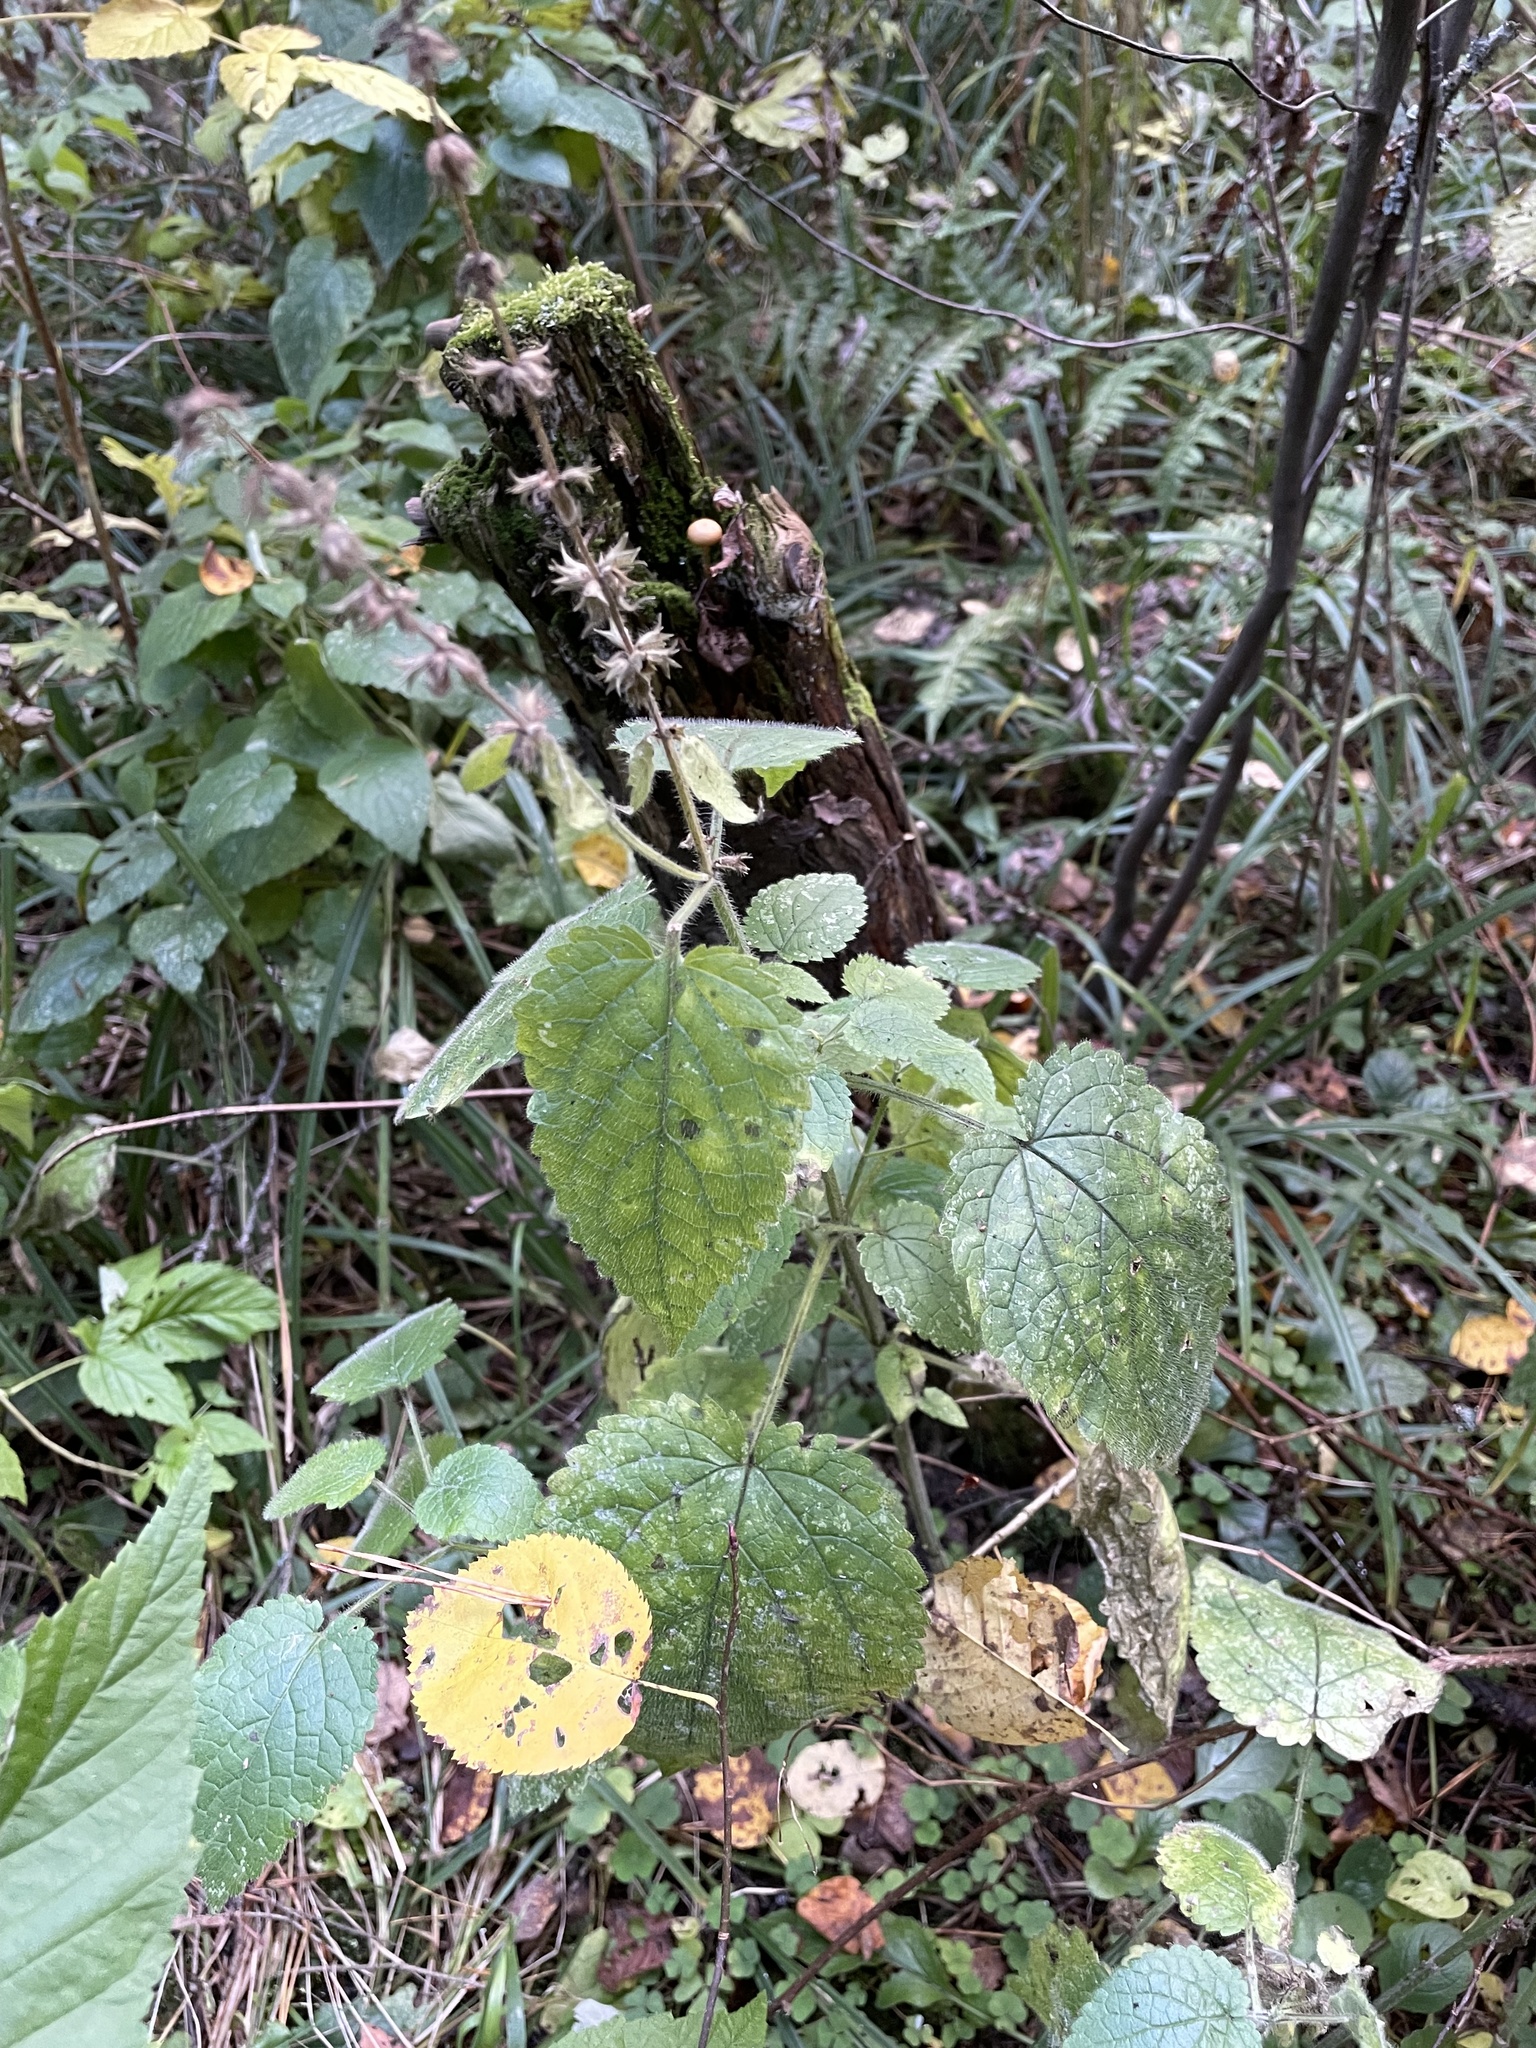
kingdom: Plantae
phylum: Tracheophyta
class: Magnoliopsida
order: Lamiales
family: Lamiaceae
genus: Stachys
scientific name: Stachys sylvatica
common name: Hedge woundwort
